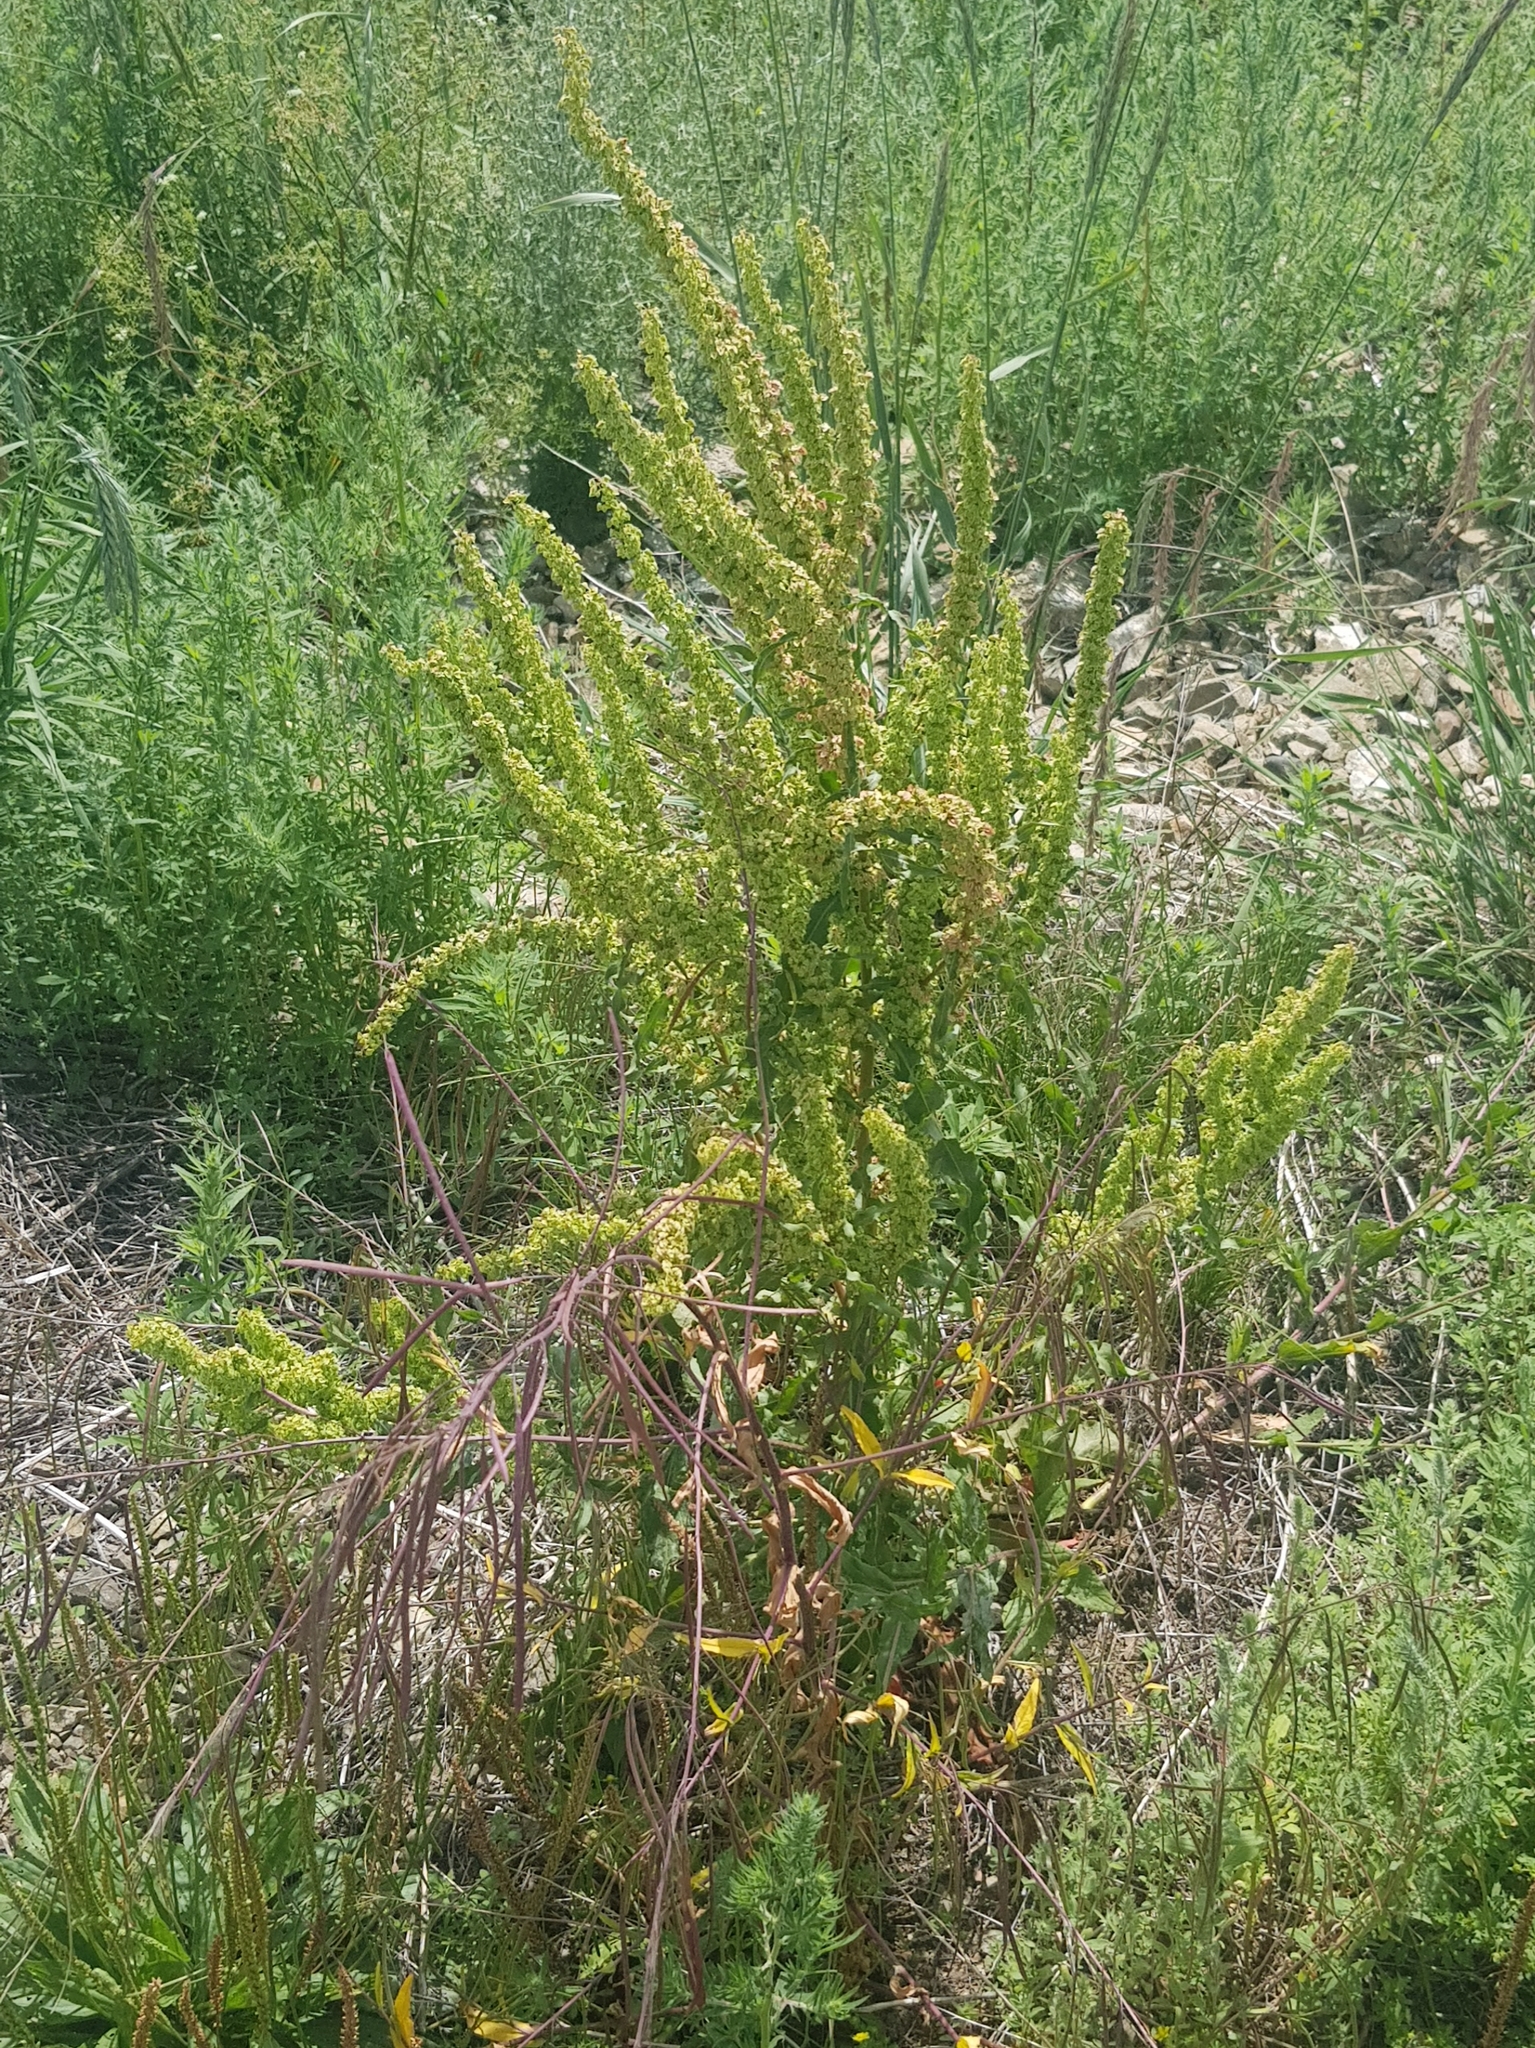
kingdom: Plantae
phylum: Tracheophyta
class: Magnoliopsida
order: Caryophyllales
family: Polygonaceae
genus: Rumex
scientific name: Rumex crispus
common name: Curled dock
